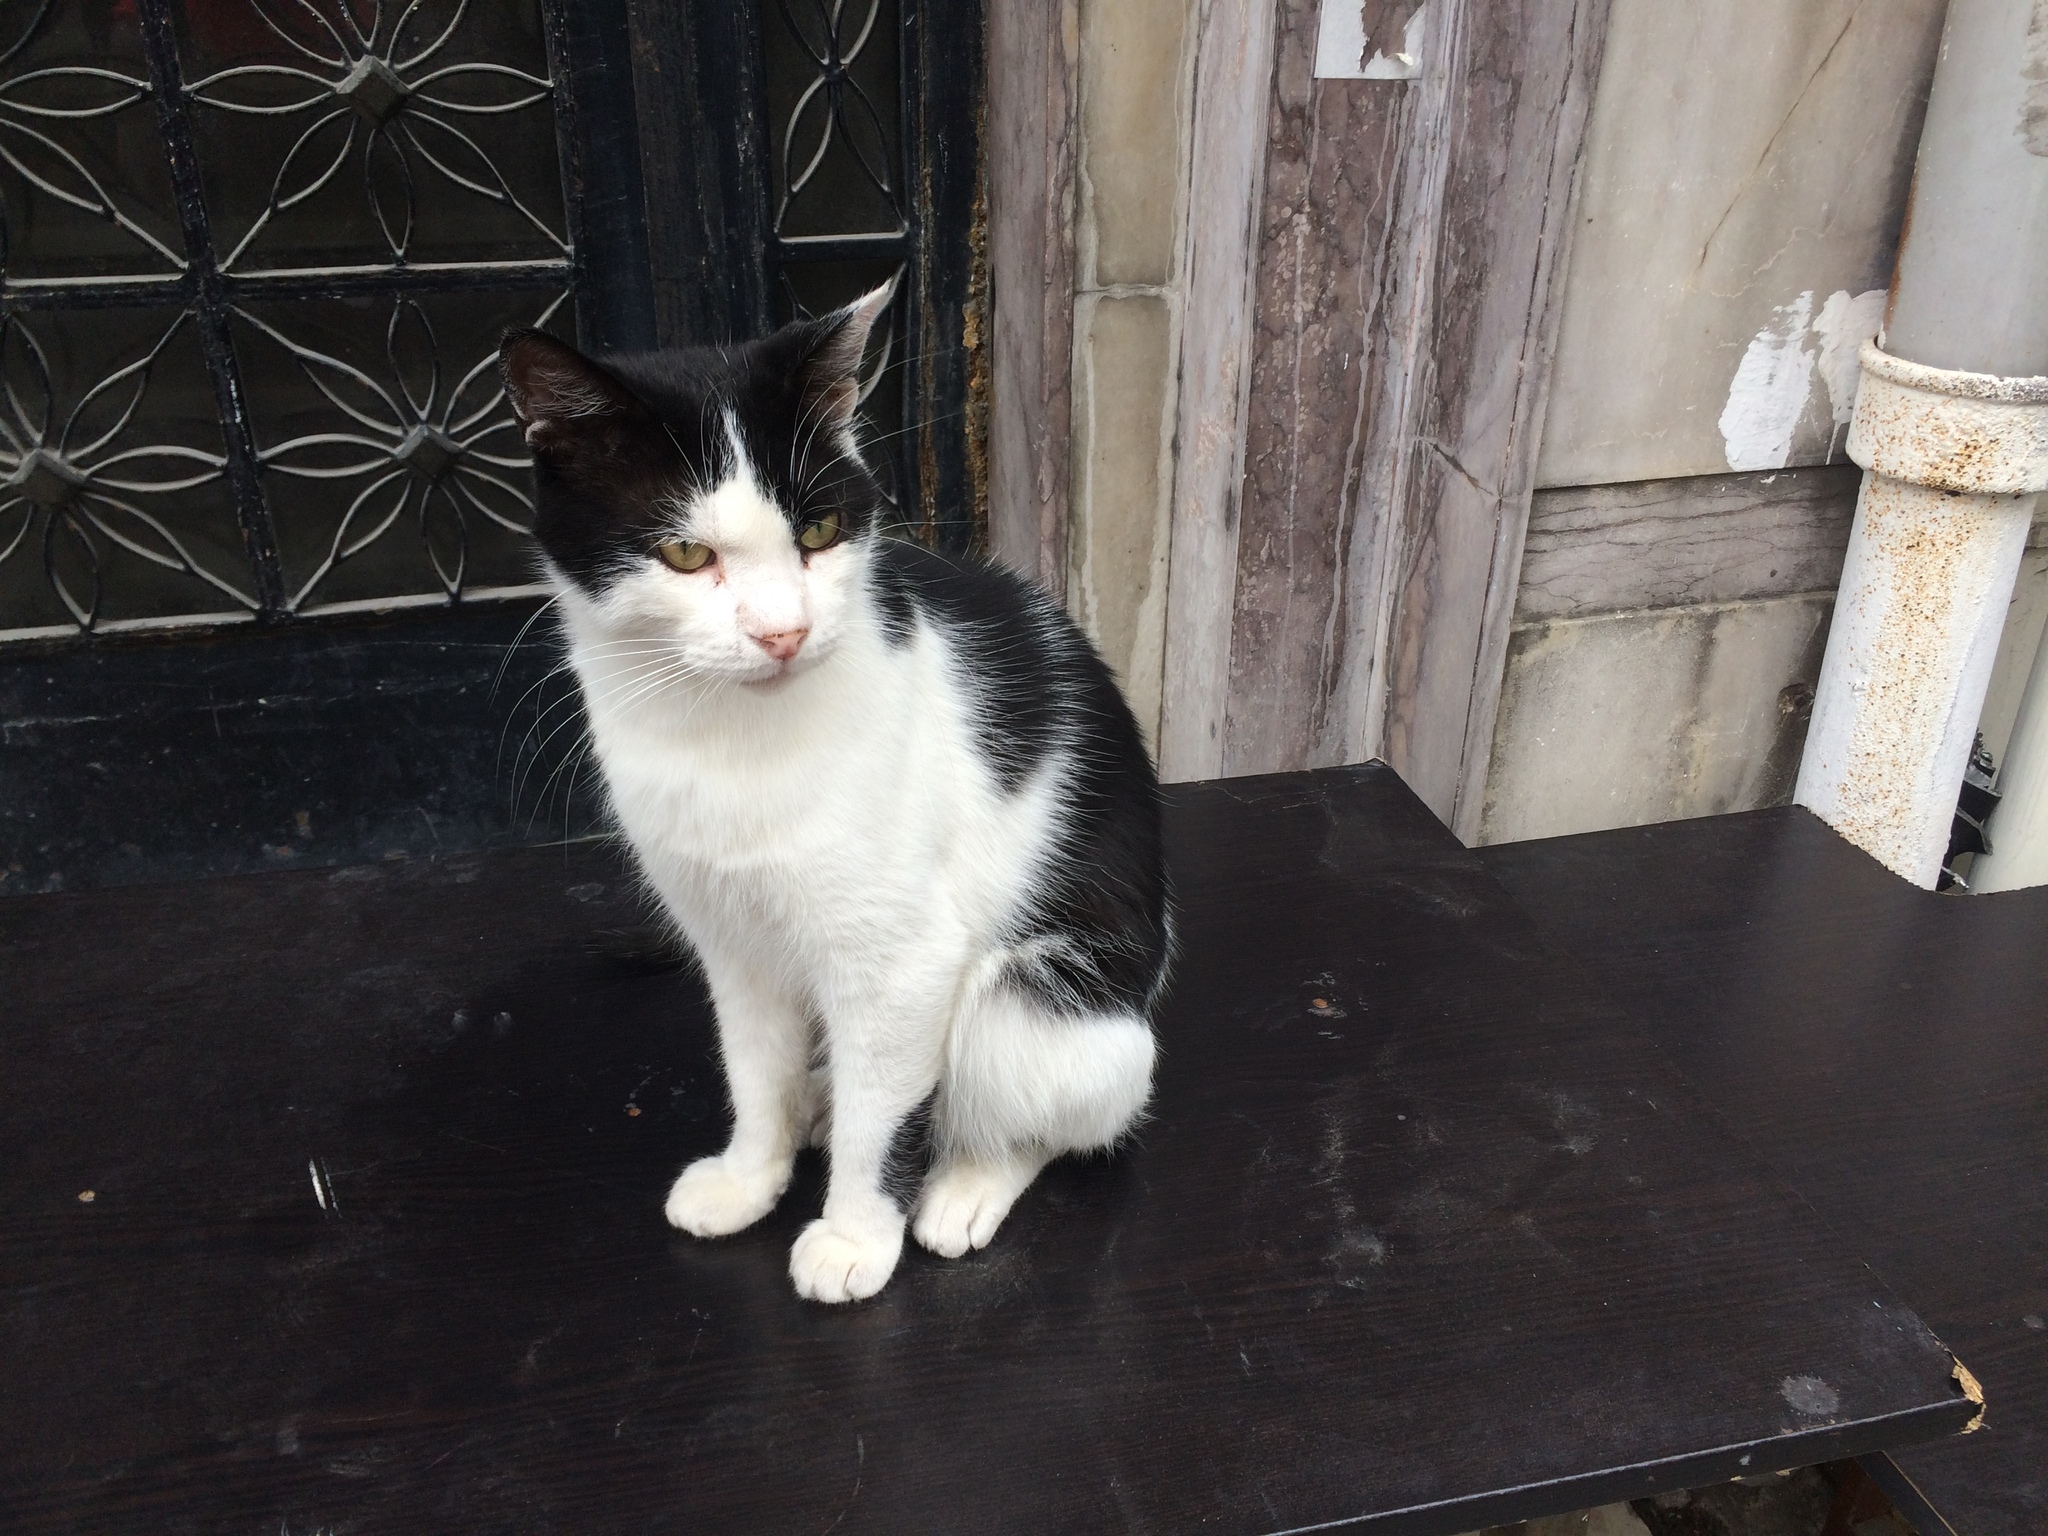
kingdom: Animalia
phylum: Chordata
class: Mammalia
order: Carnivora
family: Felidae
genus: Felis
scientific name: Felis catus
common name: Domestic cat
